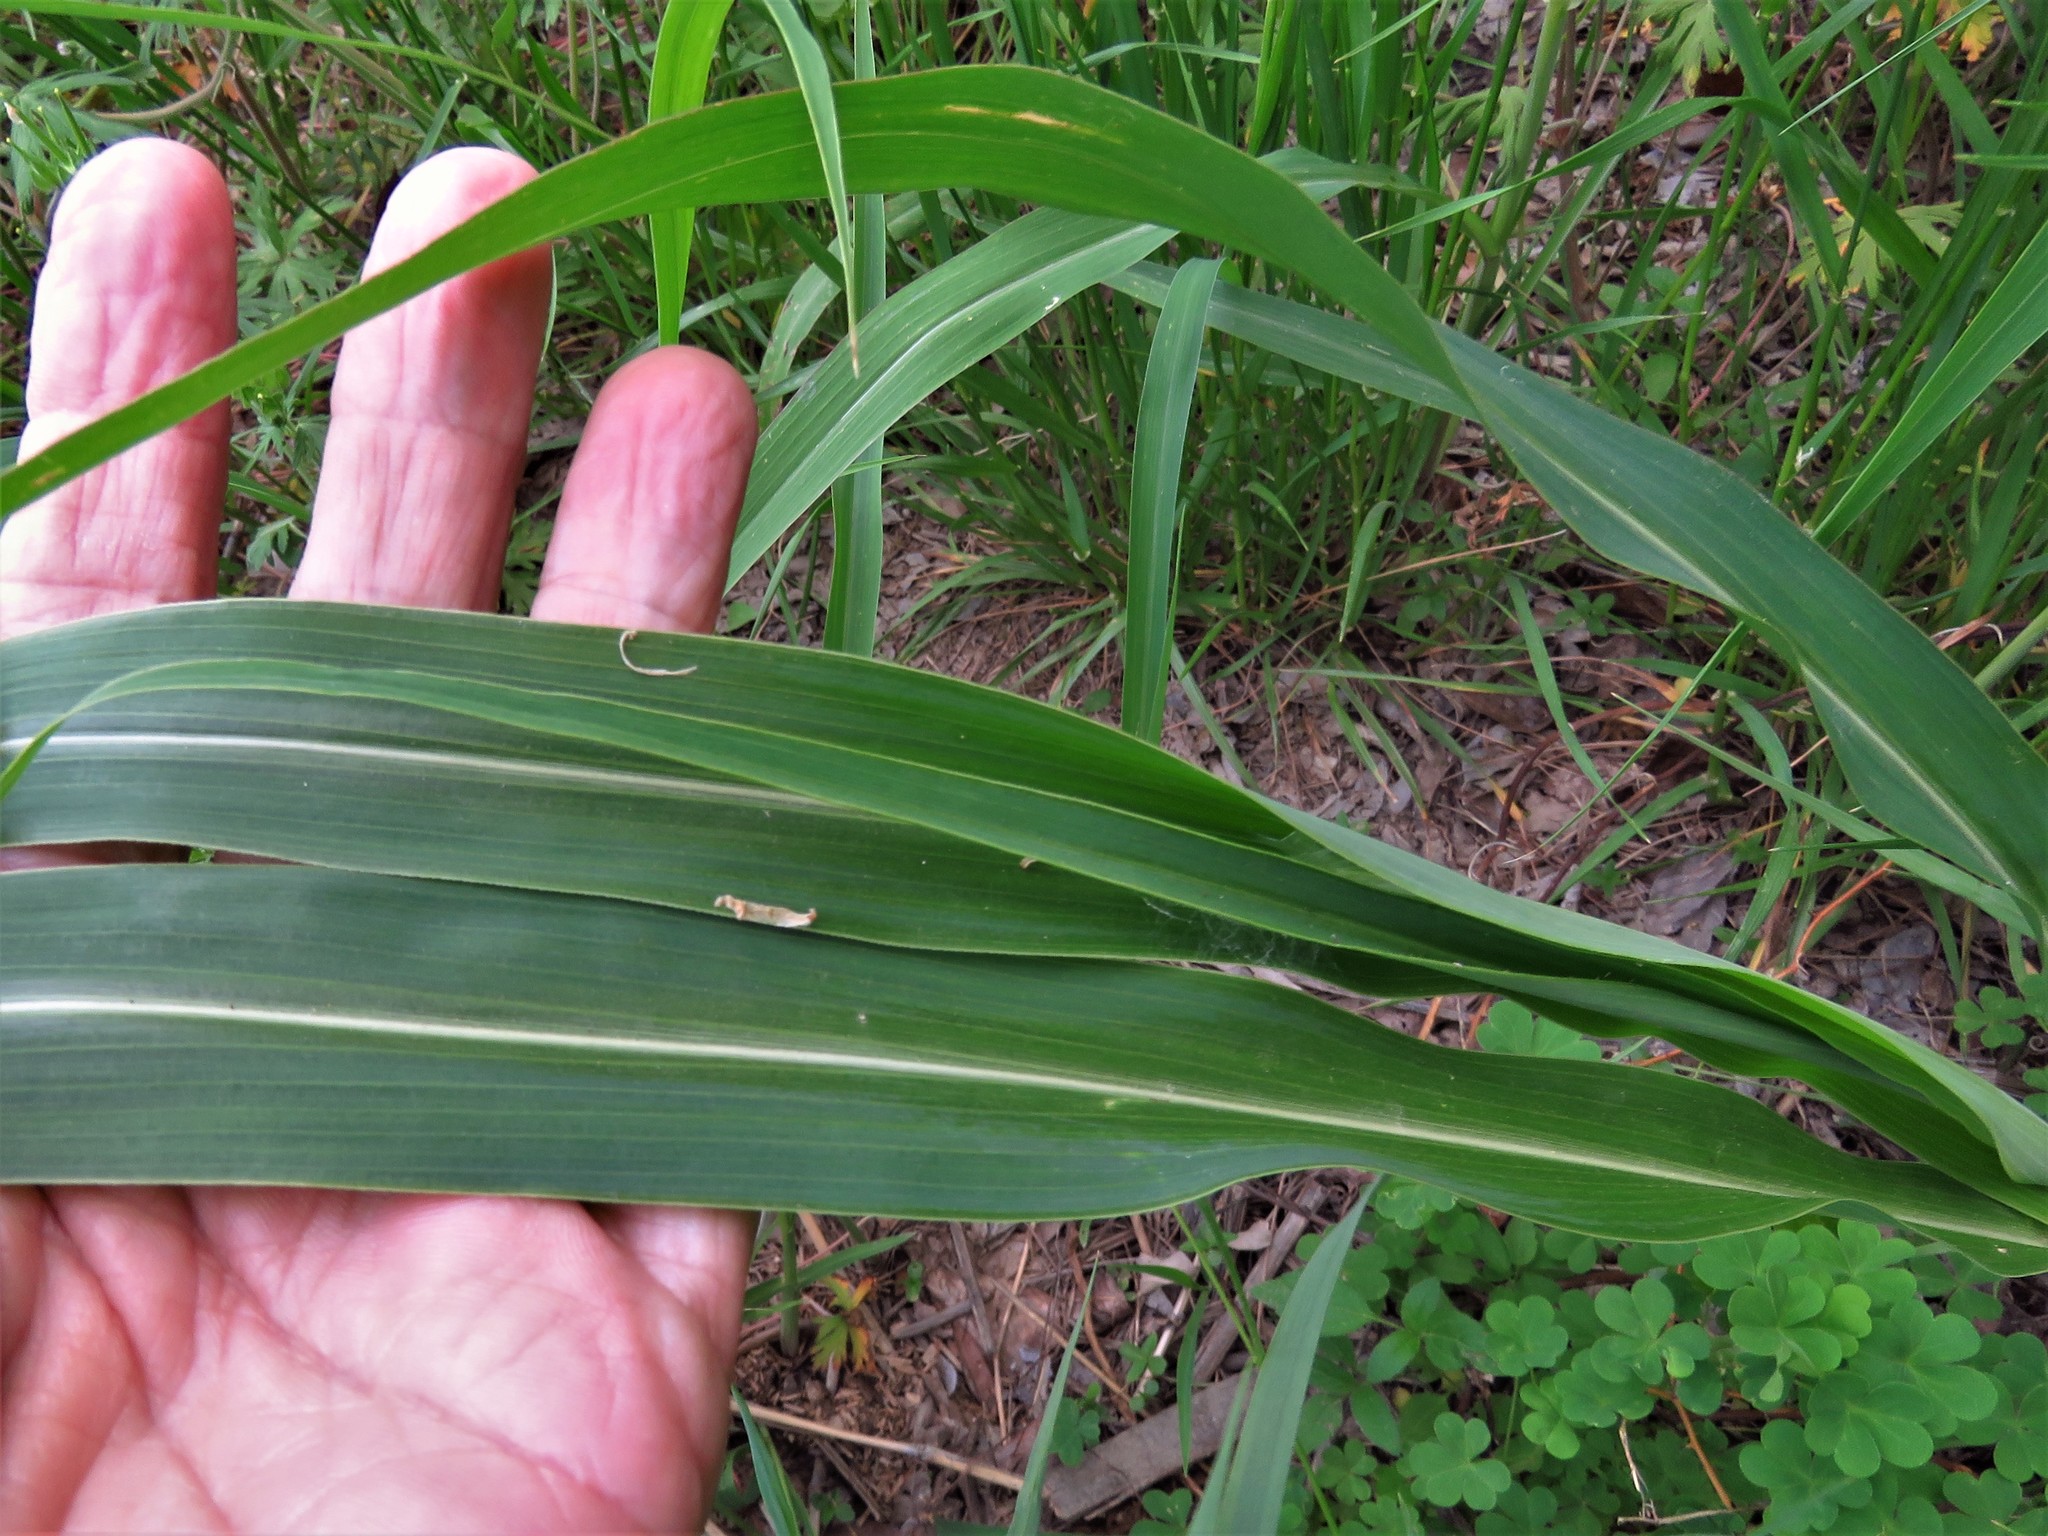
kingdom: Plantae
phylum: Tracheophyta
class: Liliopsida
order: Poales
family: Poaceae
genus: Sorghum
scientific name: Sorghum halepense
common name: Johnson-grass
